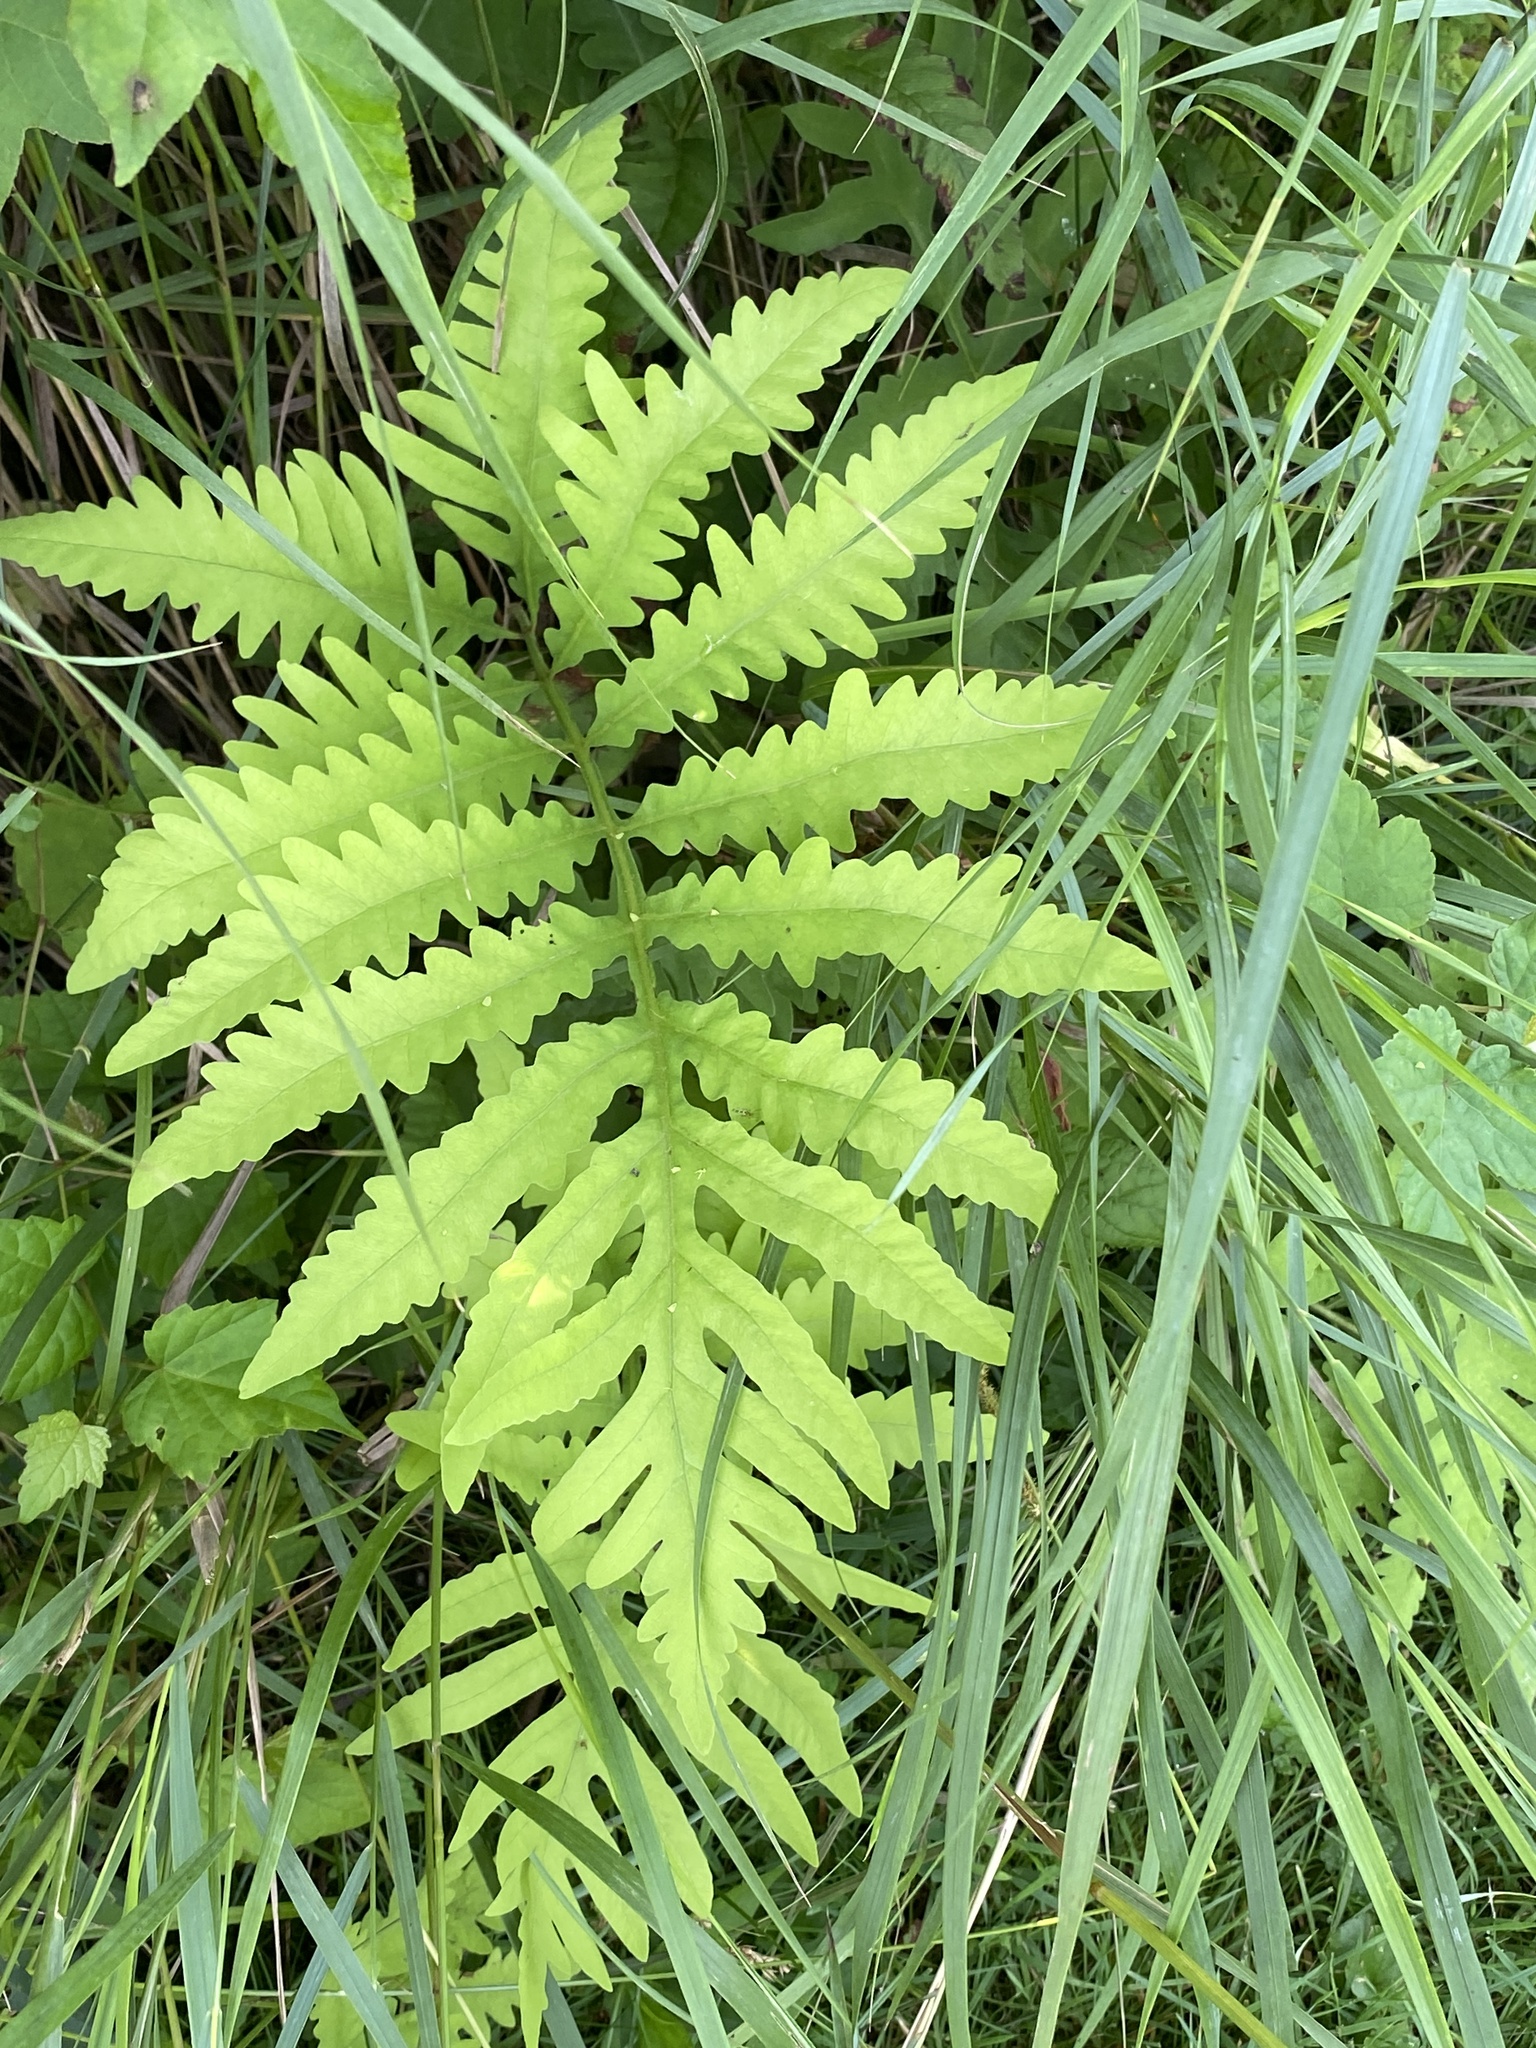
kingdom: Plantae
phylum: Tracheophyta
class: Polypodiopsida
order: Polypodiales
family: Onocleaceae
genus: Onoclea
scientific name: Onoclea sensibilis
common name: Sensitive fern
